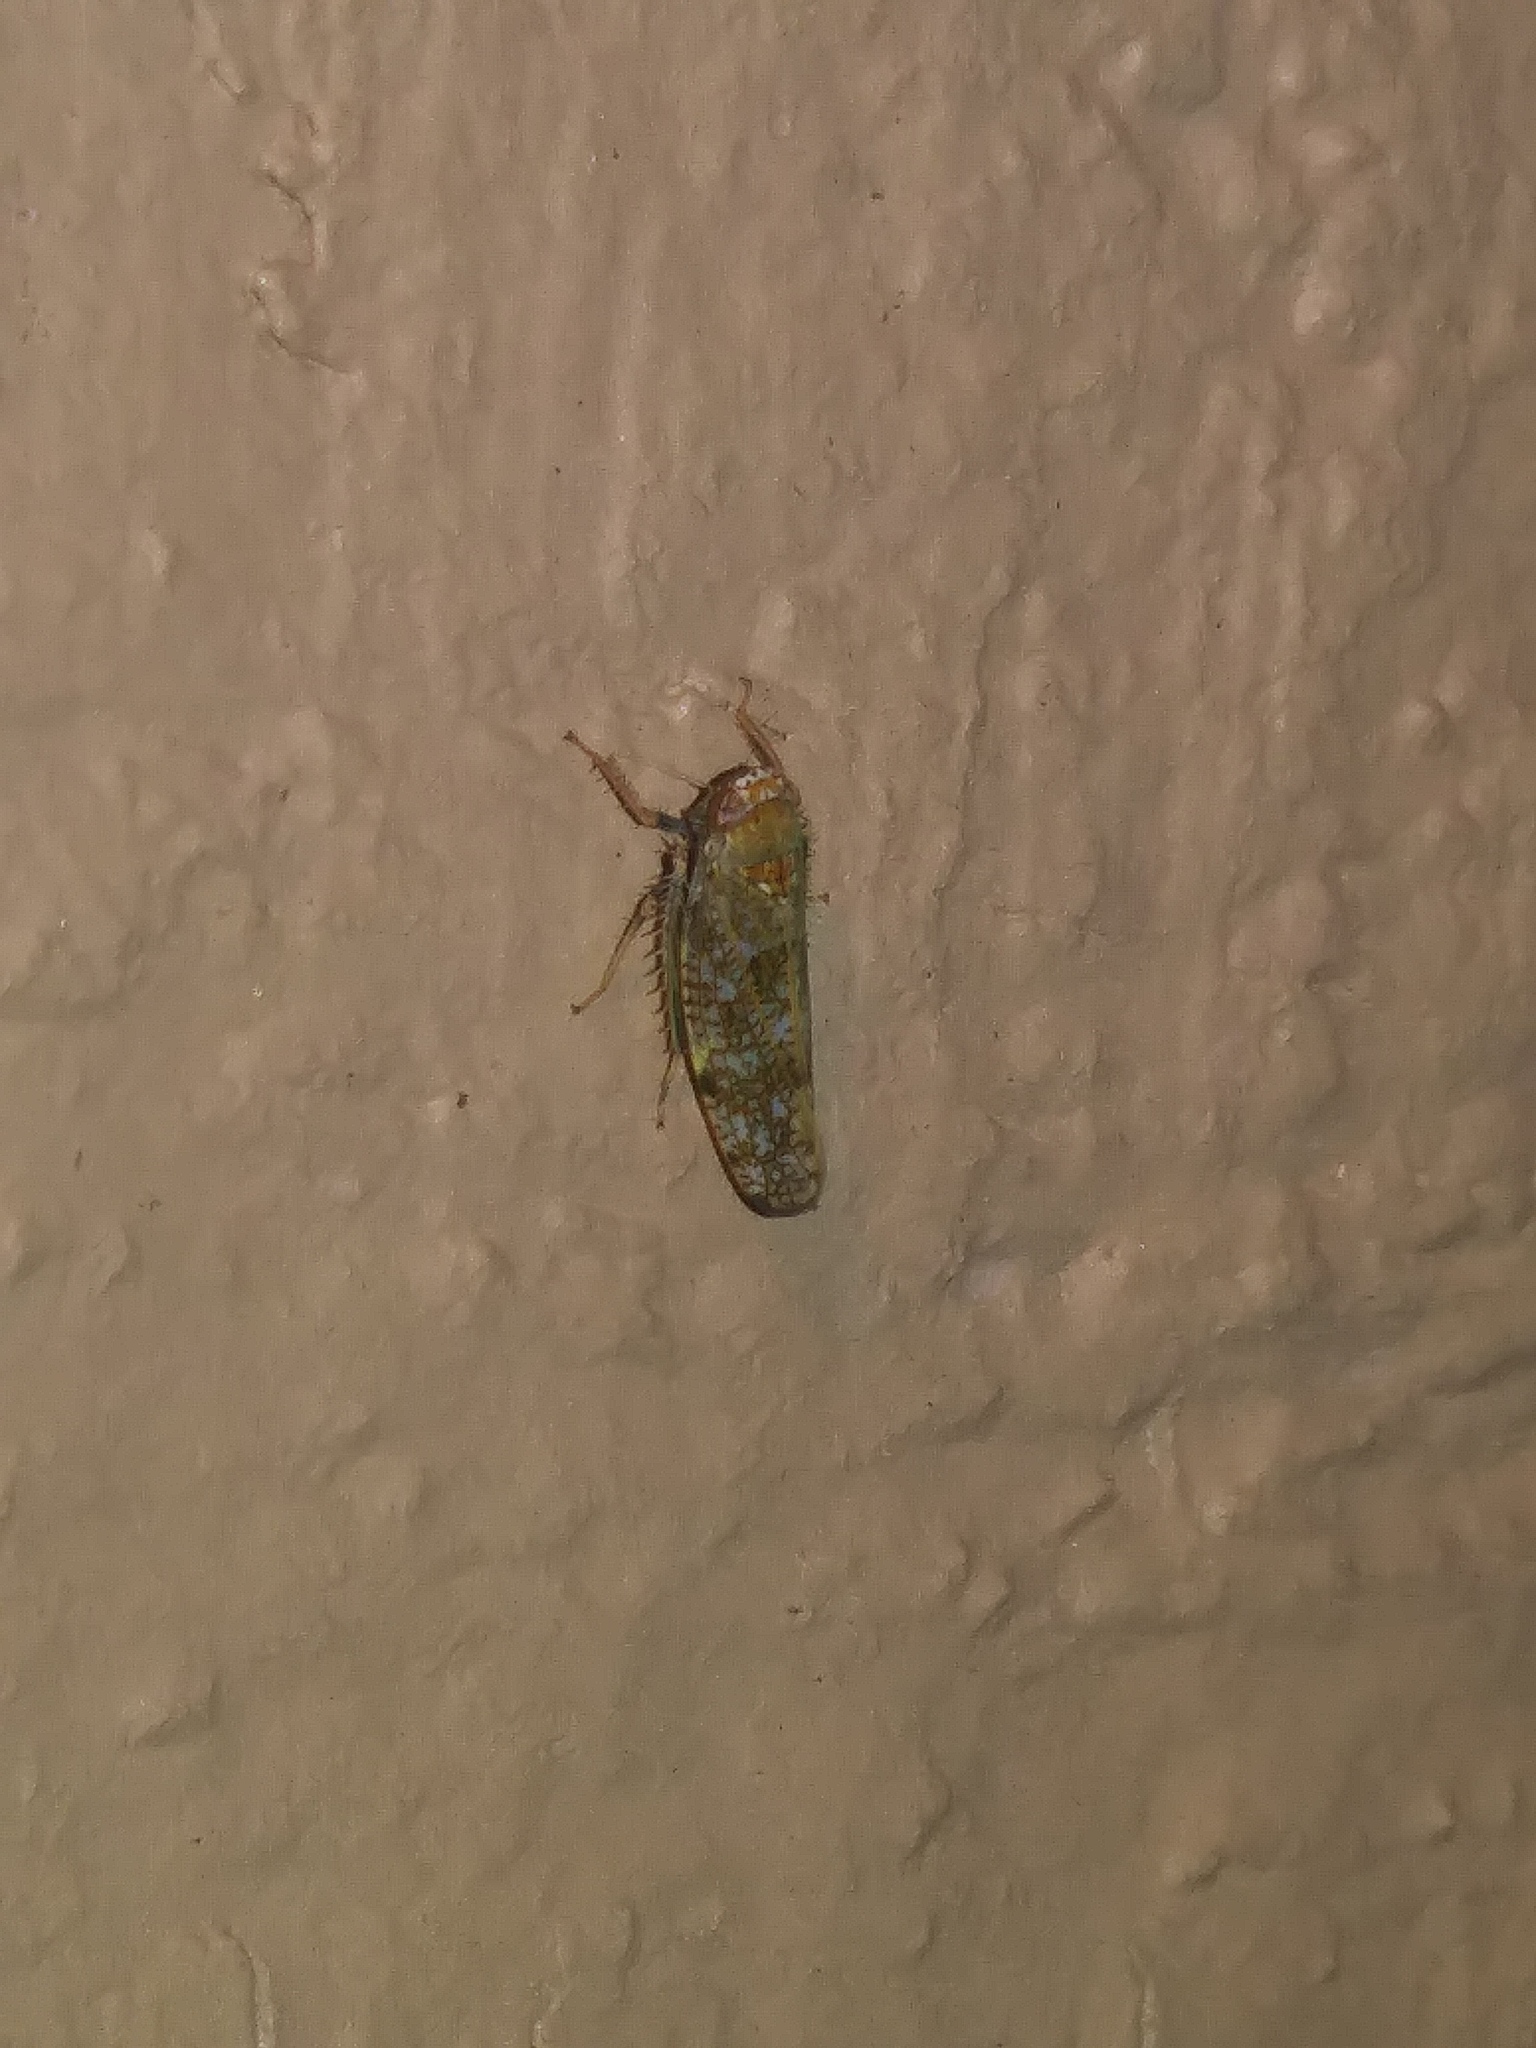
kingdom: Animalia
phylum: Arthropoda
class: Insecta
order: Hemiptera
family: Cicadellidae
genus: Orientus
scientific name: Orientus ishidae
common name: Japanese leafhopper
